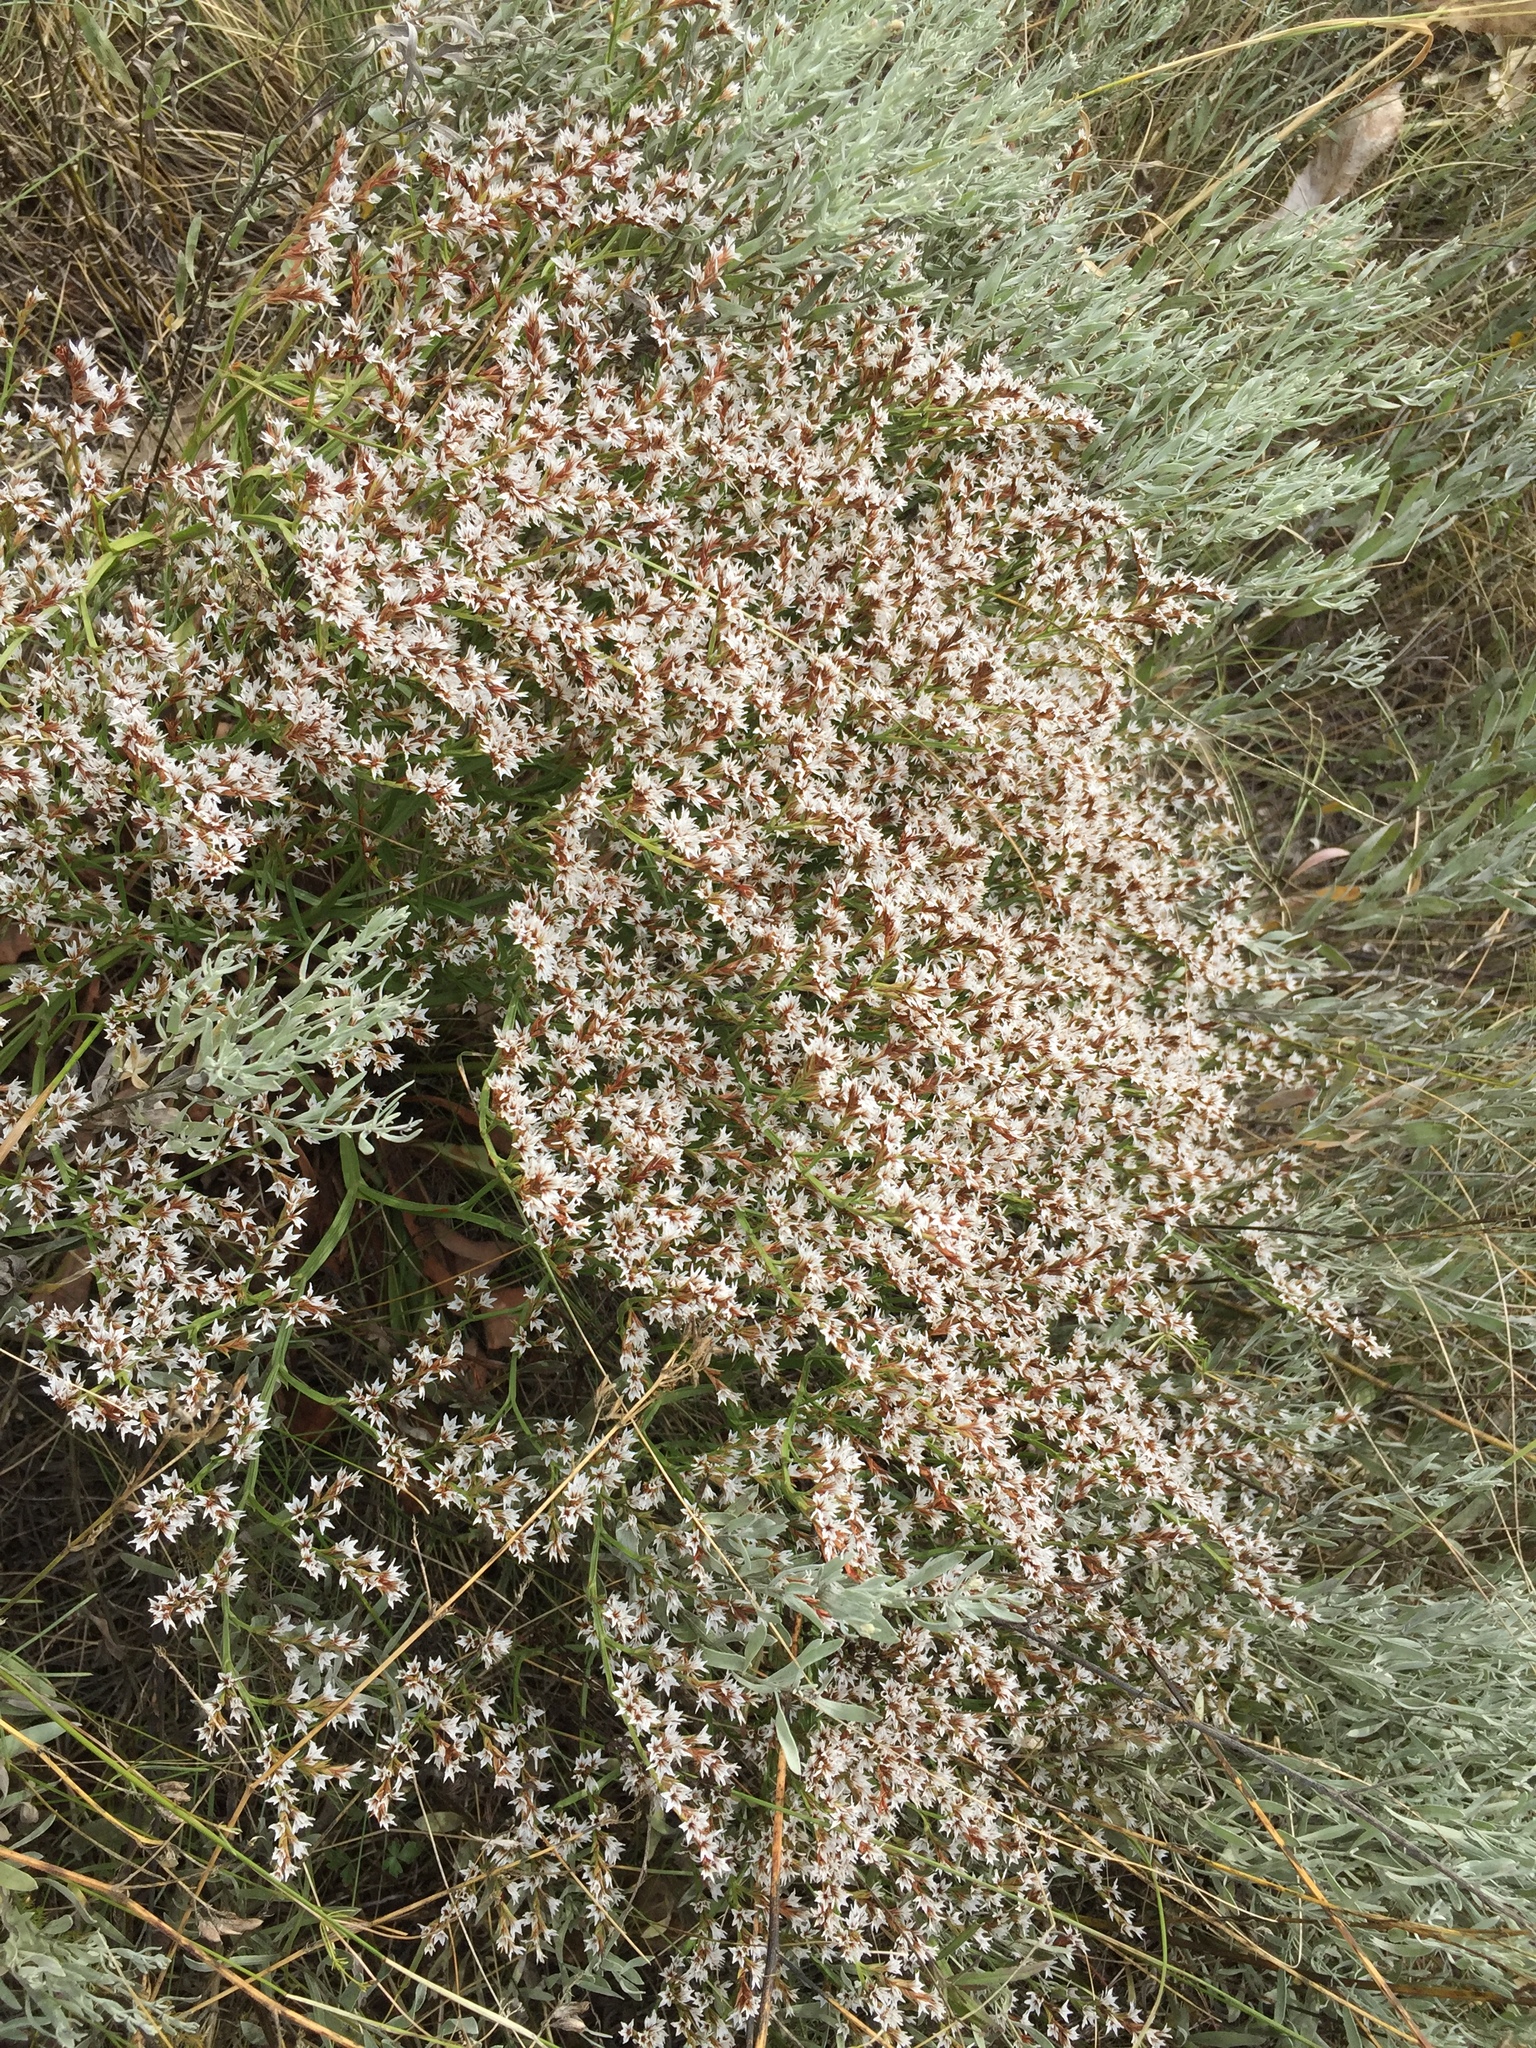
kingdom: Plantae
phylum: Tracheophyta
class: Magnoliopsida
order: Caryophyllales
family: Plumbaginaceae
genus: Goniolimon
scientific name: Goniolimon tataricum
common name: Statice
